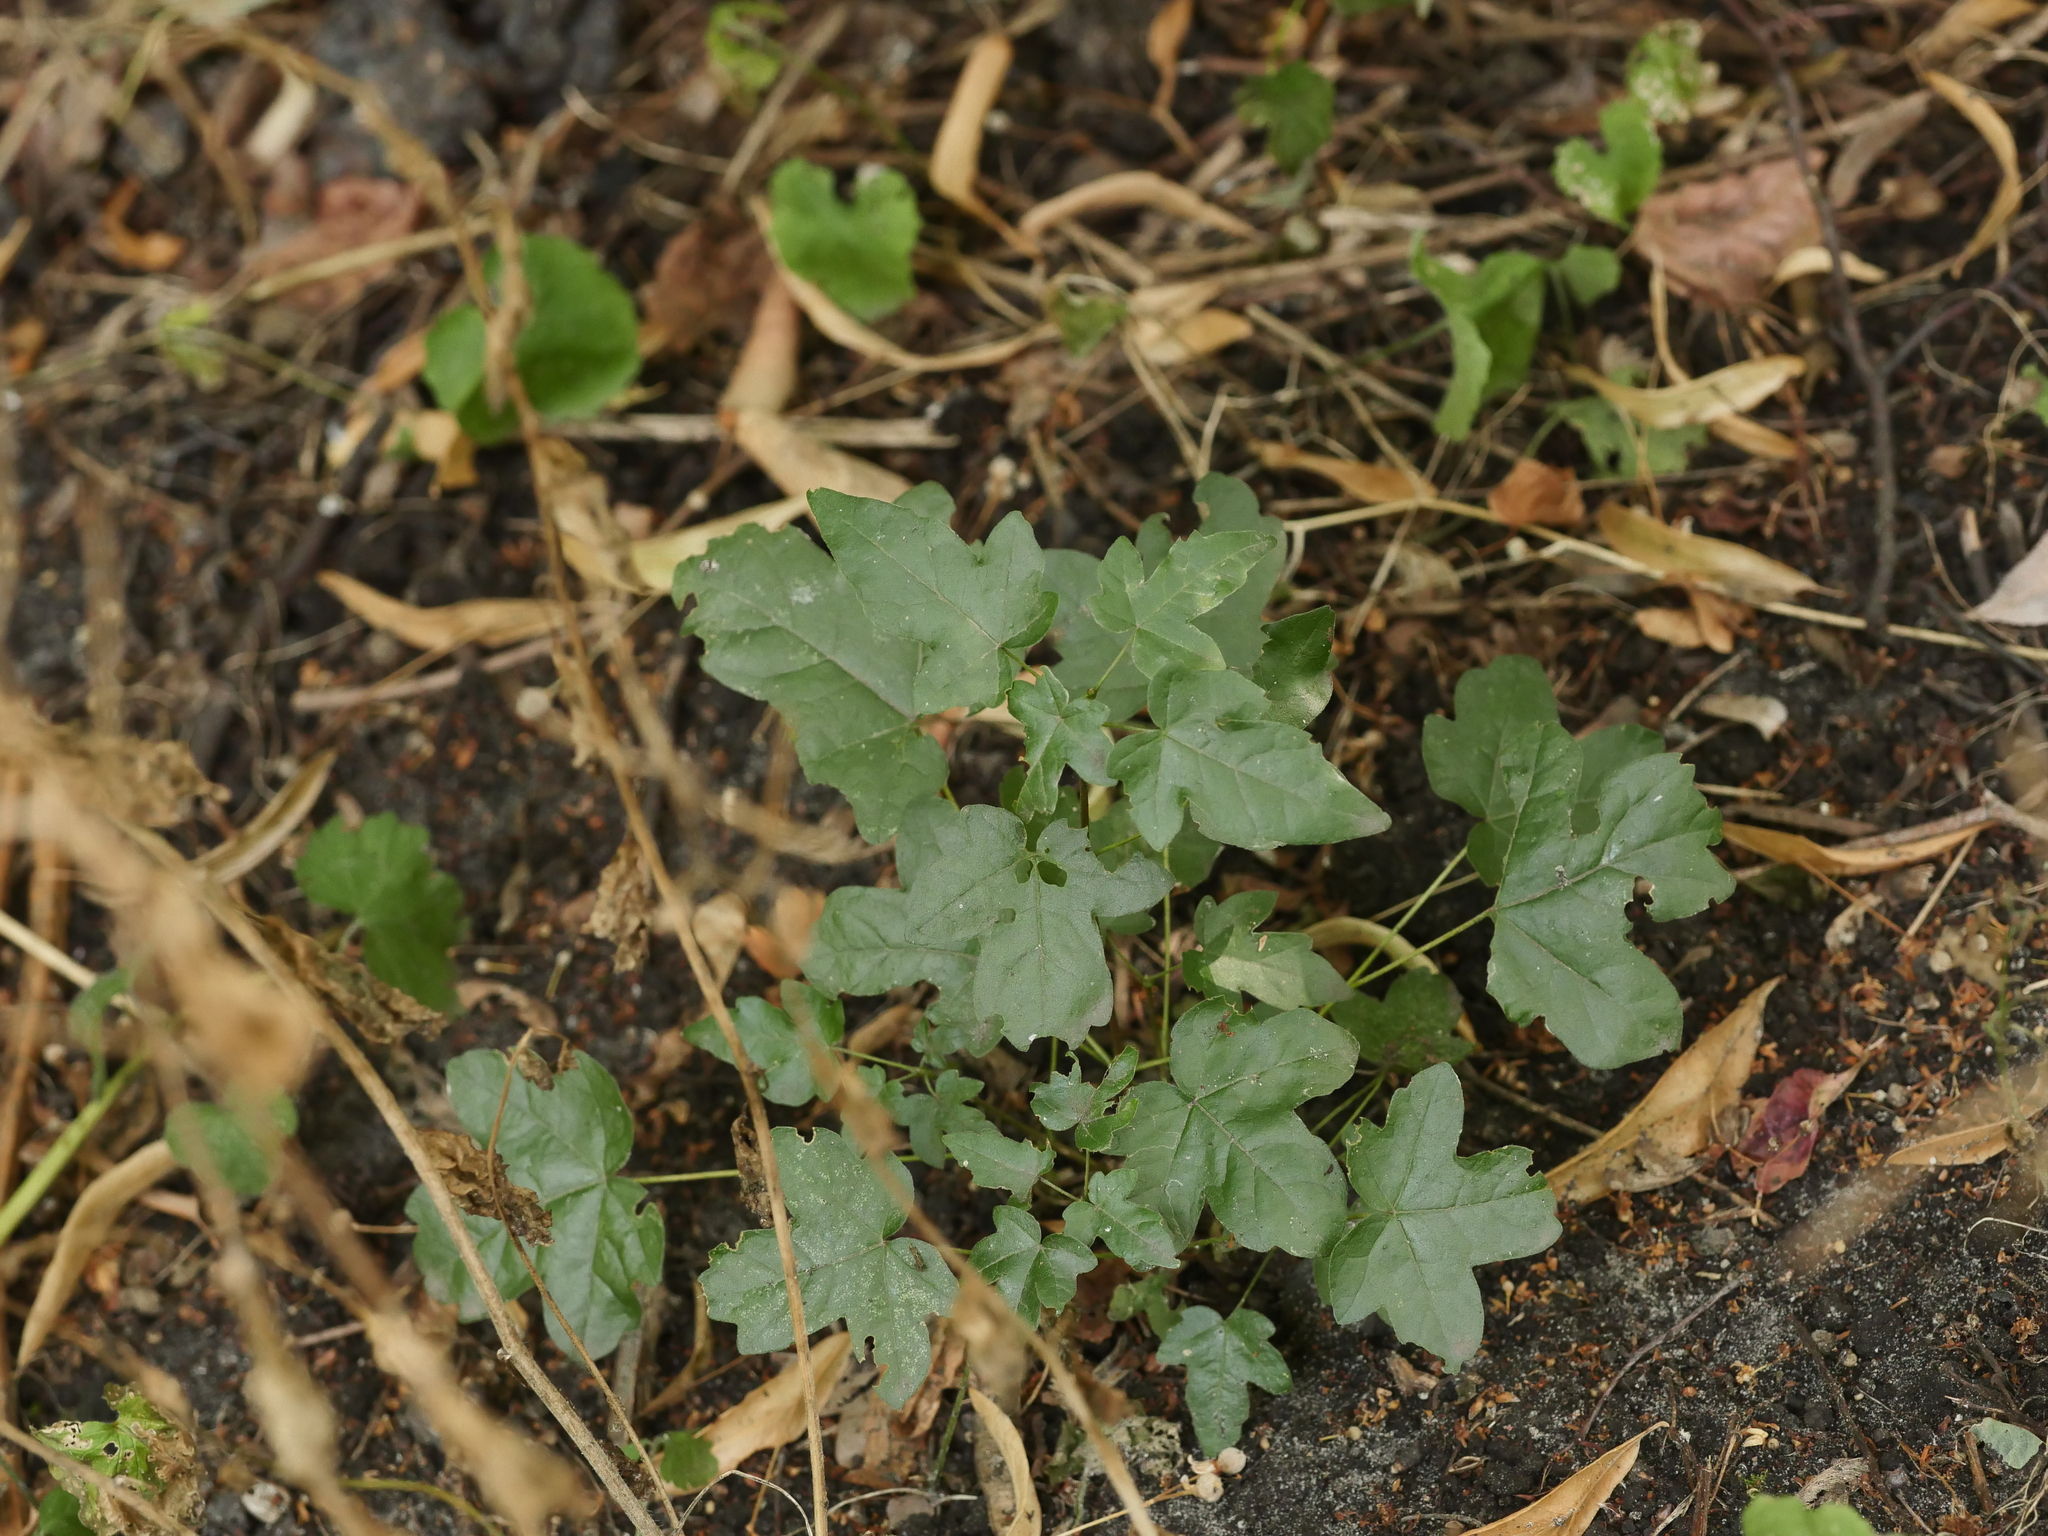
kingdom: Plantae
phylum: Tracheophyta
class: Magnoliopsida
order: Sapindales
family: Sapindaceae
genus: Acer
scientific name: Acer campestre
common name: Field maple
